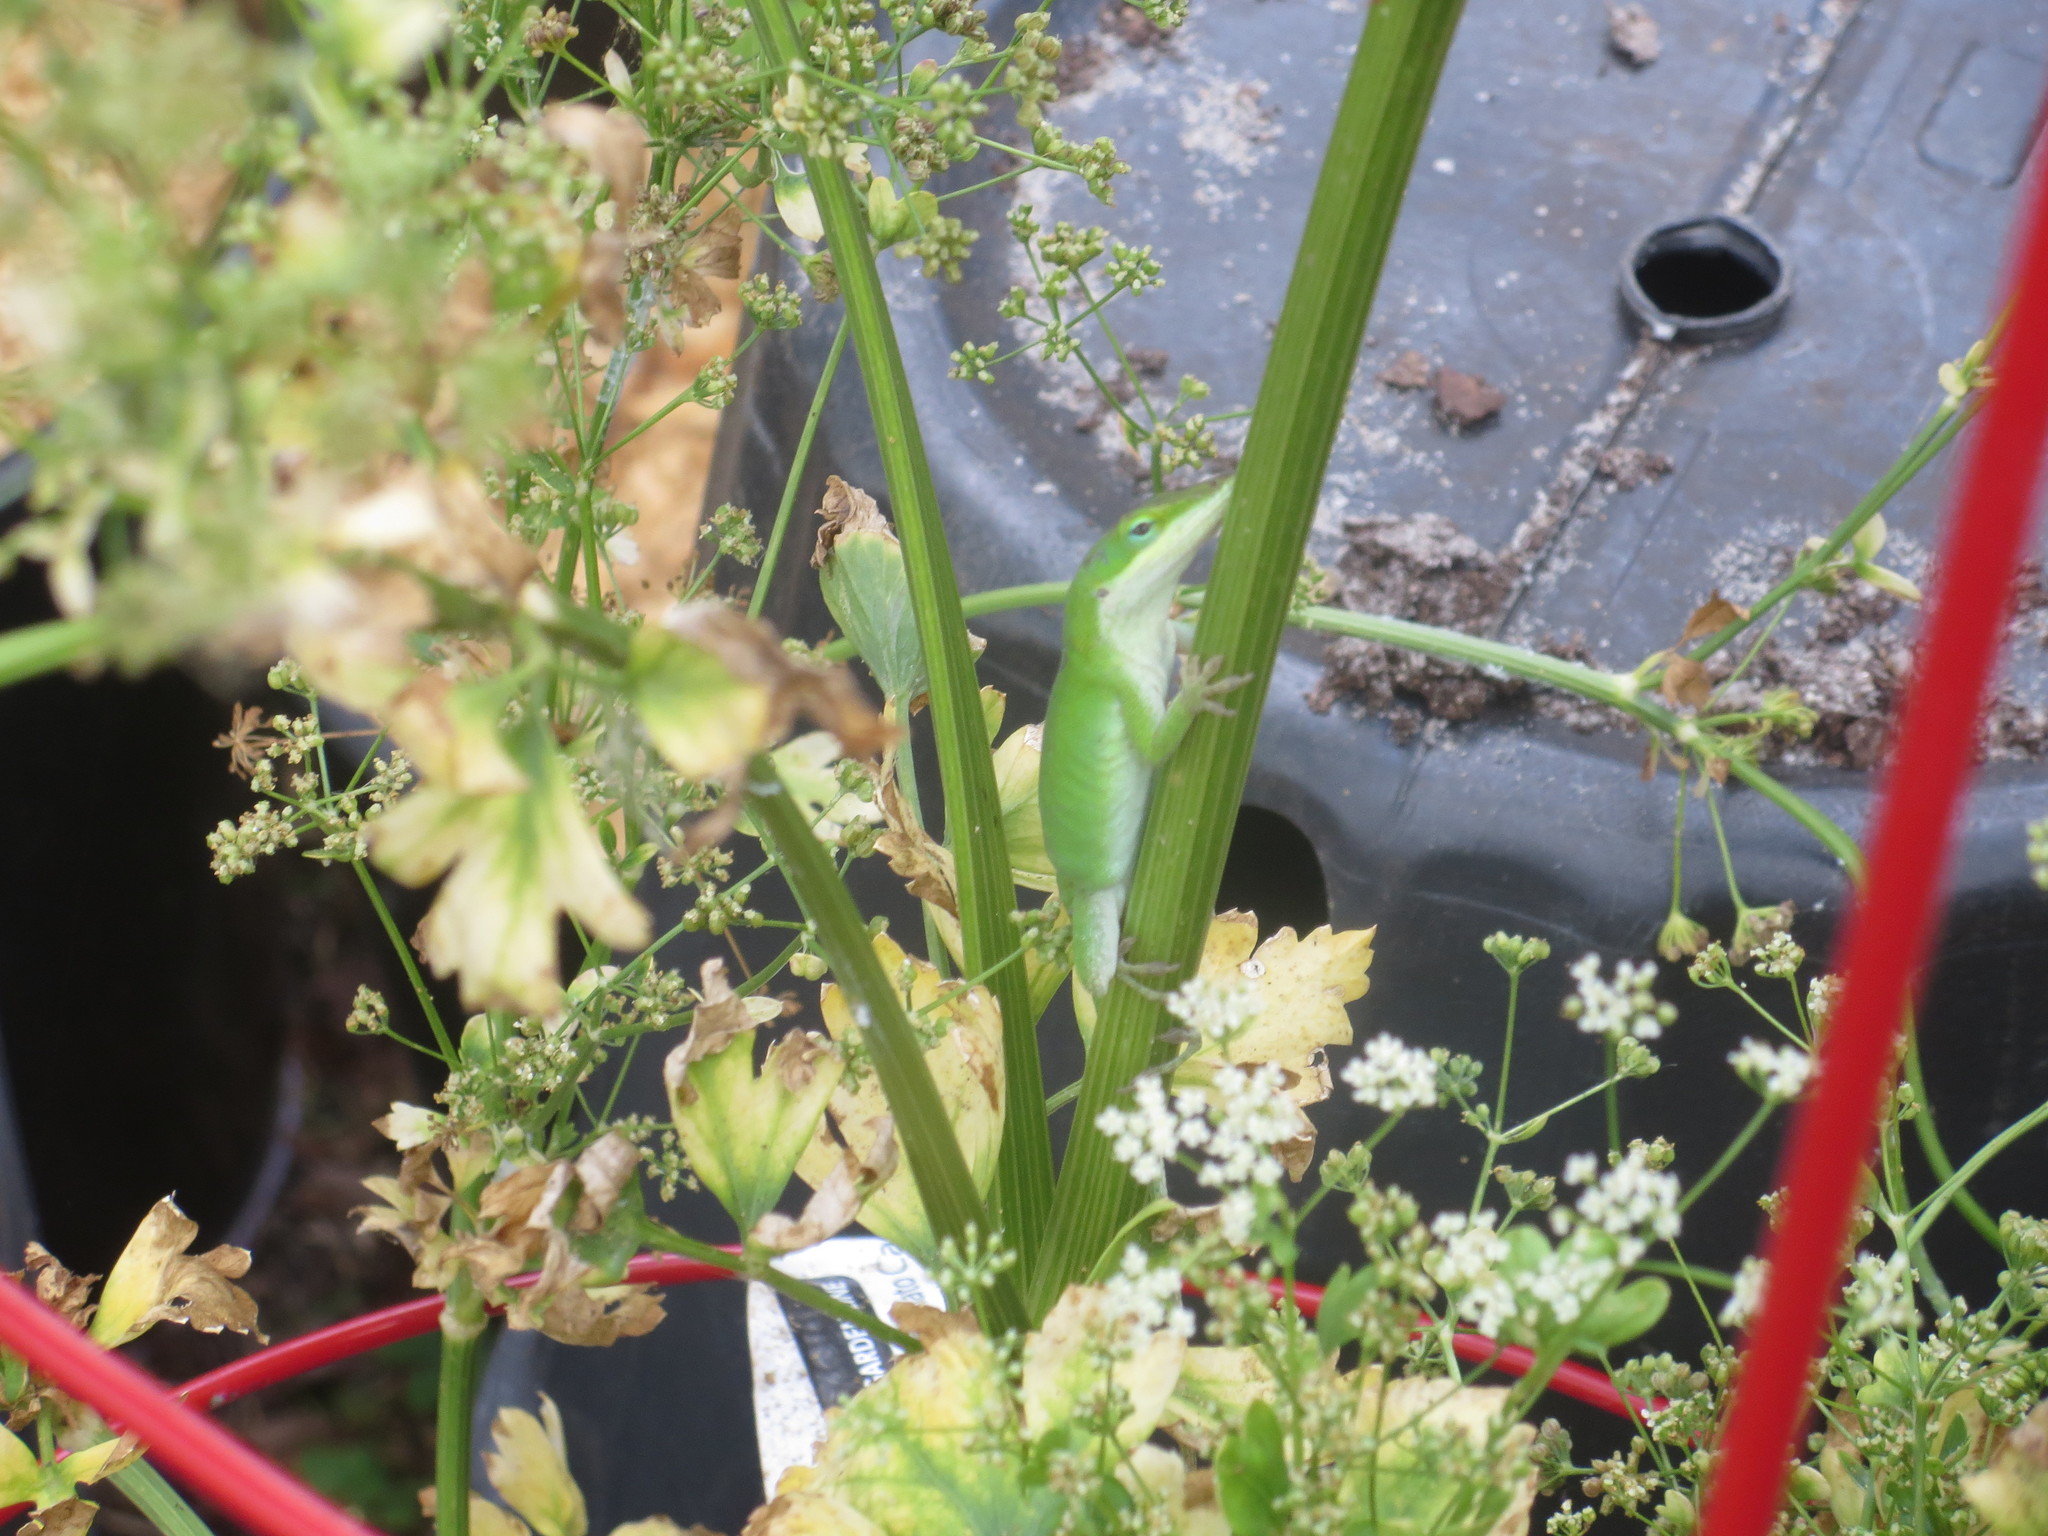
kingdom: Animalia
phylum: Chordata
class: Squamata
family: Dactyloidae
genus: Anolis
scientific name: Anolis carolinensis
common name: Green anole
